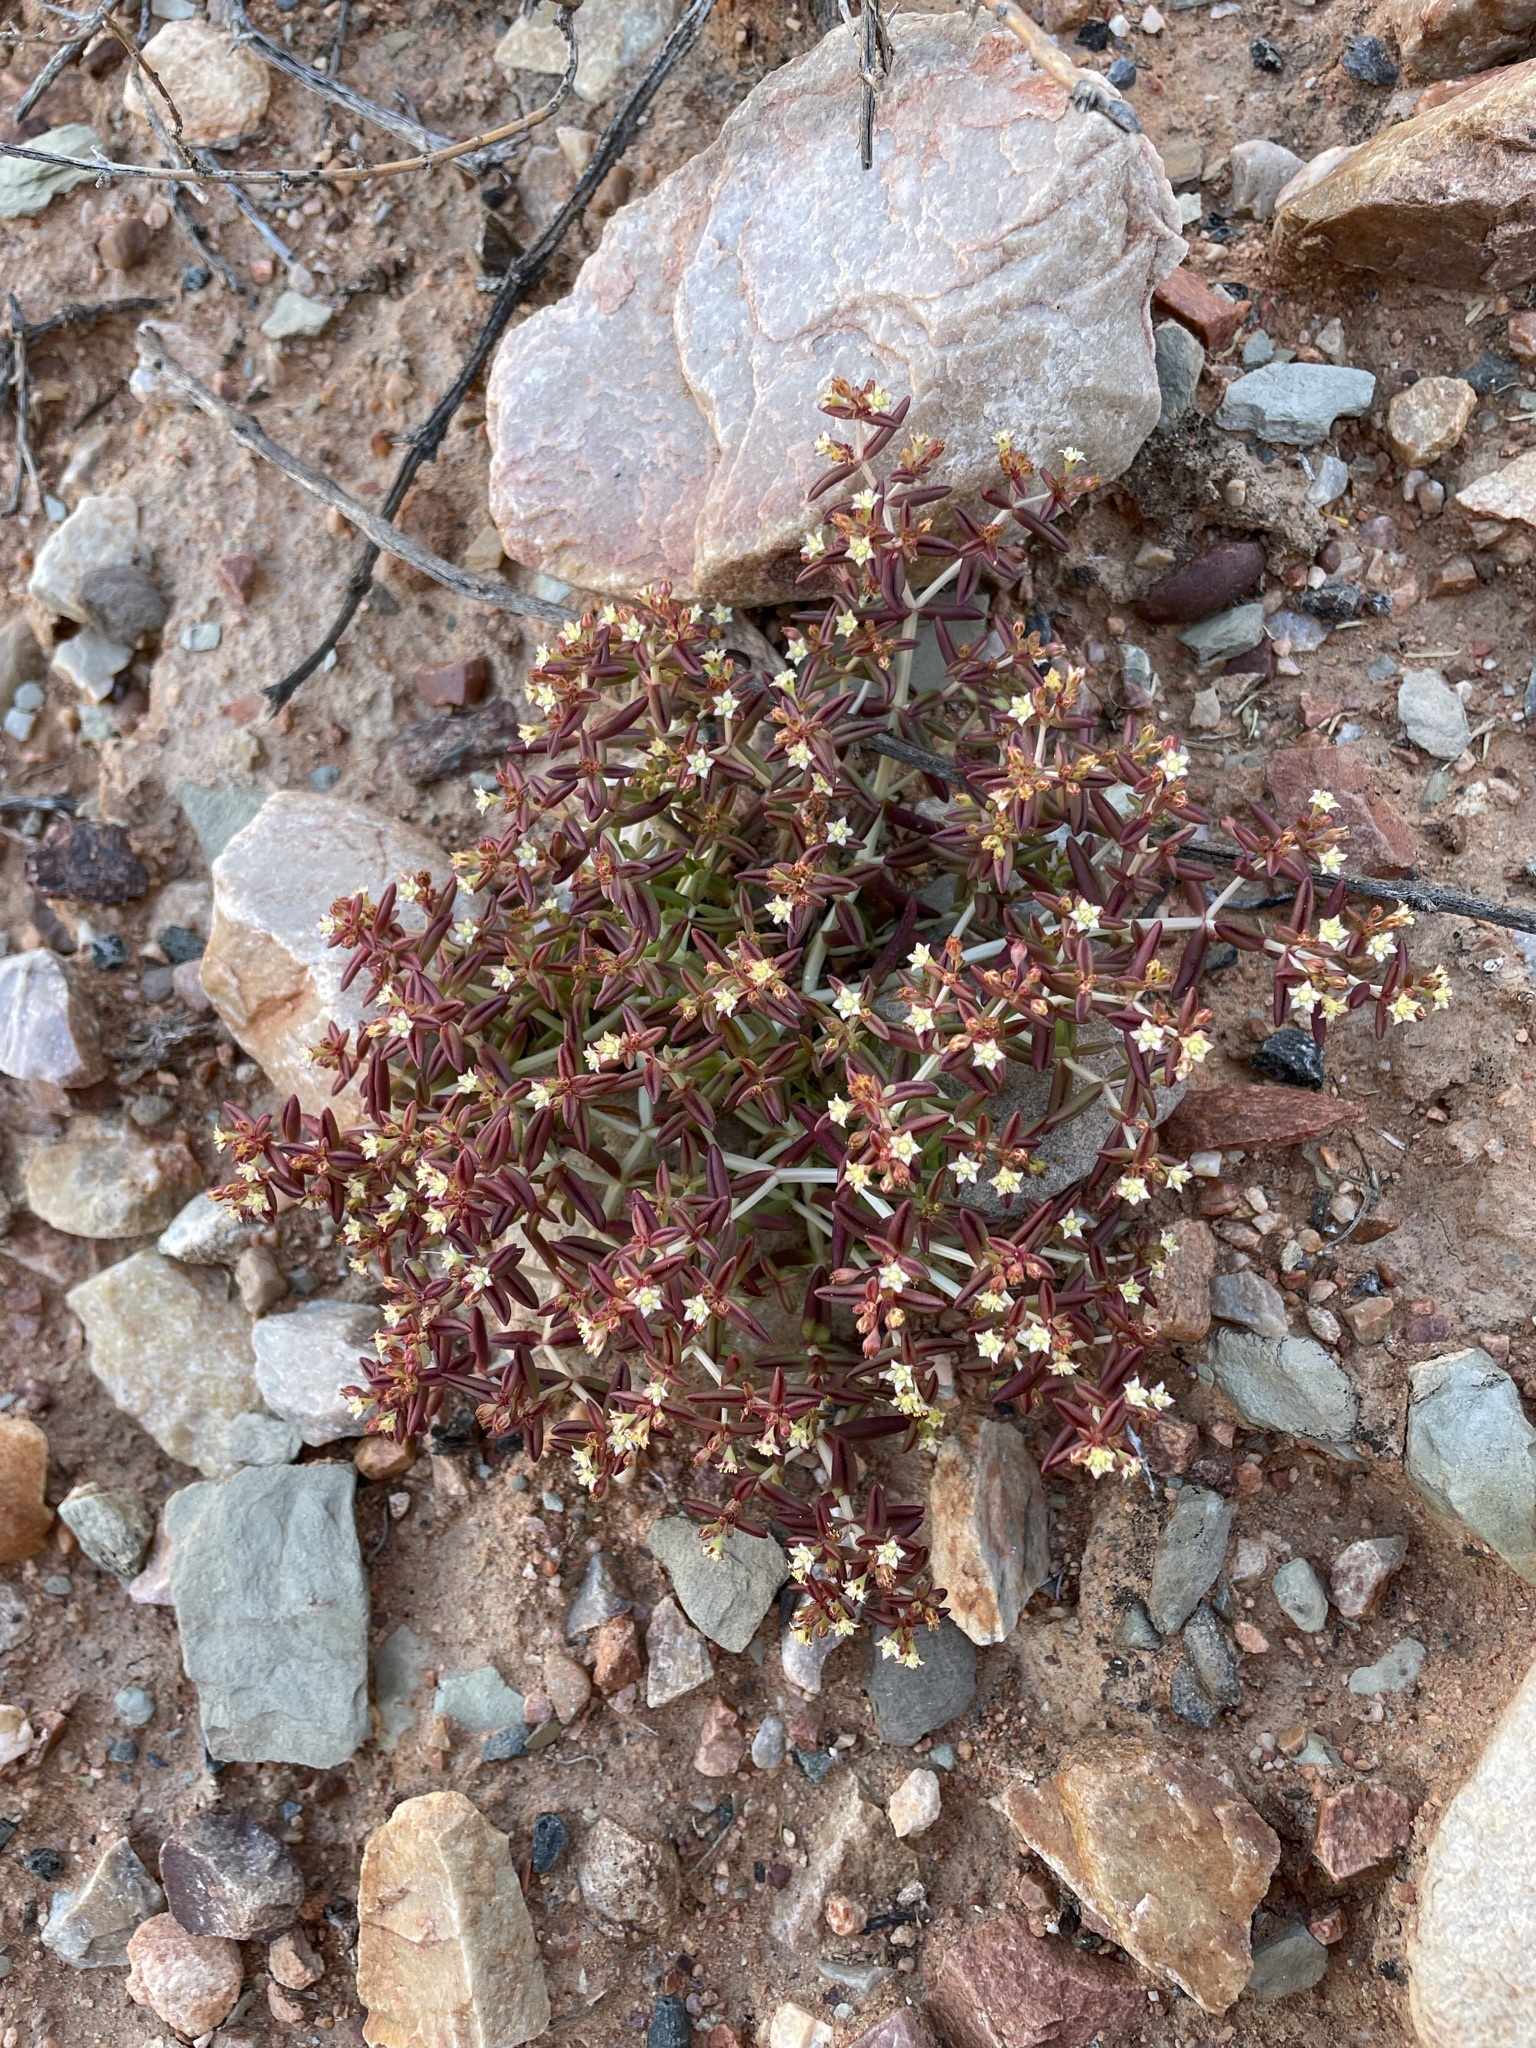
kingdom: Plantae
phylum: Tracheophyta
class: Magnoliopsida
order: Saxifragales
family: Crassulaceae
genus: Crassula
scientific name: Crassula expansa
